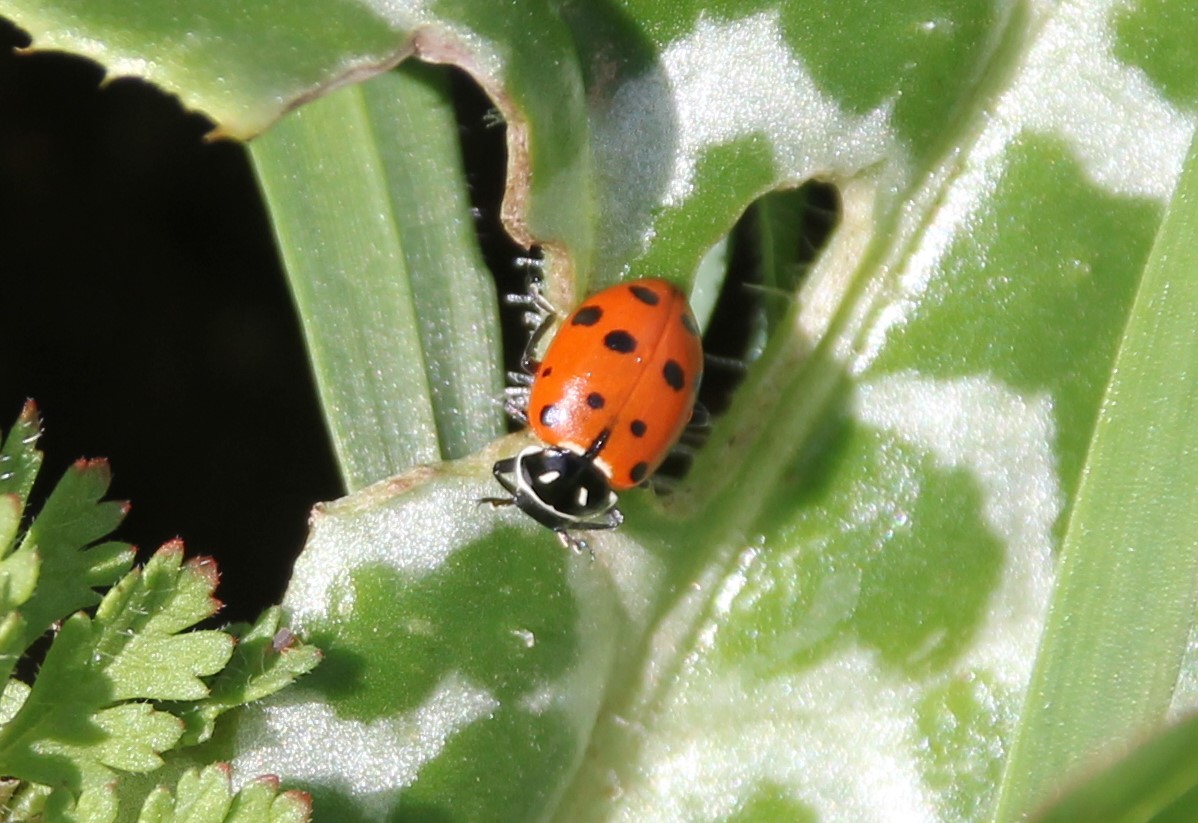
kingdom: Animalia
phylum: Arthropoda
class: Insecta
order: Coleoptera
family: Coccinellidae
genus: Hippodamia
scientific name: Hippodamia convergens
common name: Convergent lady beetle
